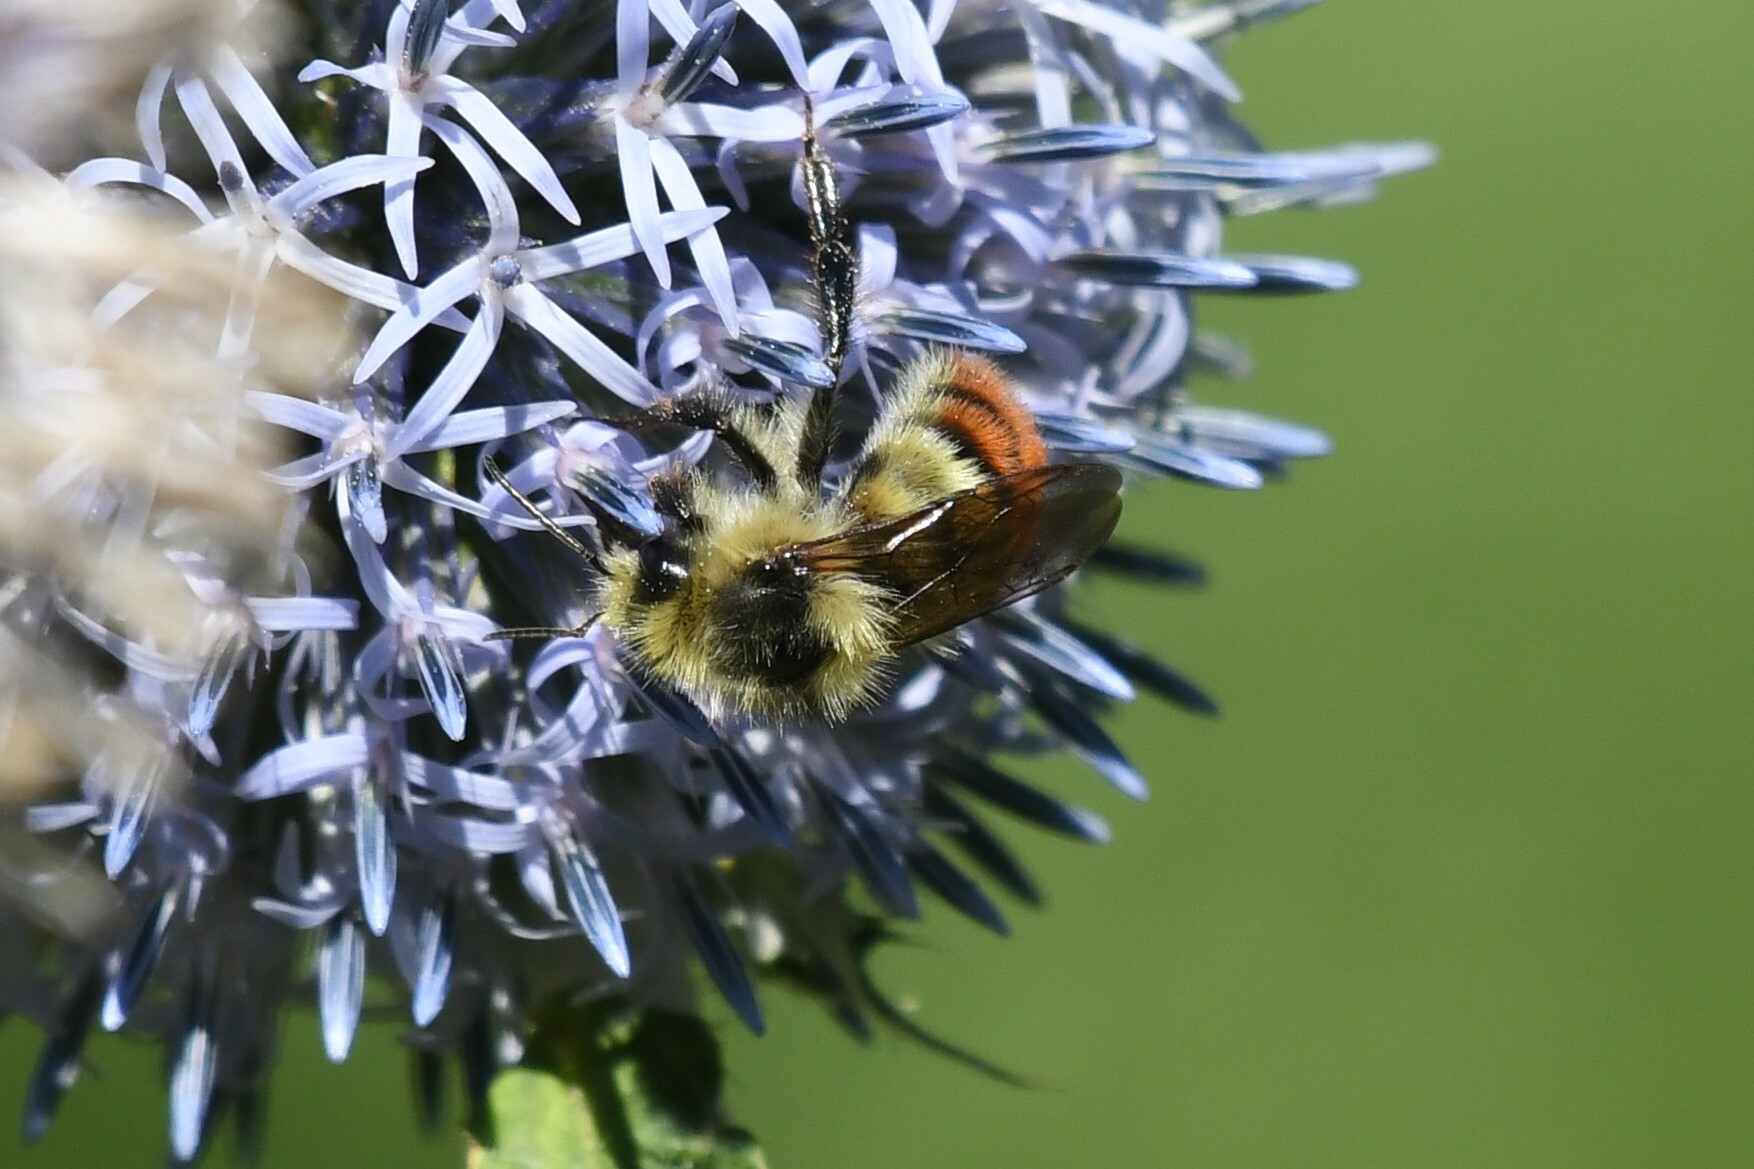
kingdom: Animalia
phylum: Arthropoda
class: Insecta
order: Hymenoptera
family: Apidae
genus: Bombus
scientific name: Bombus centralis
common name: Central bumble bee
